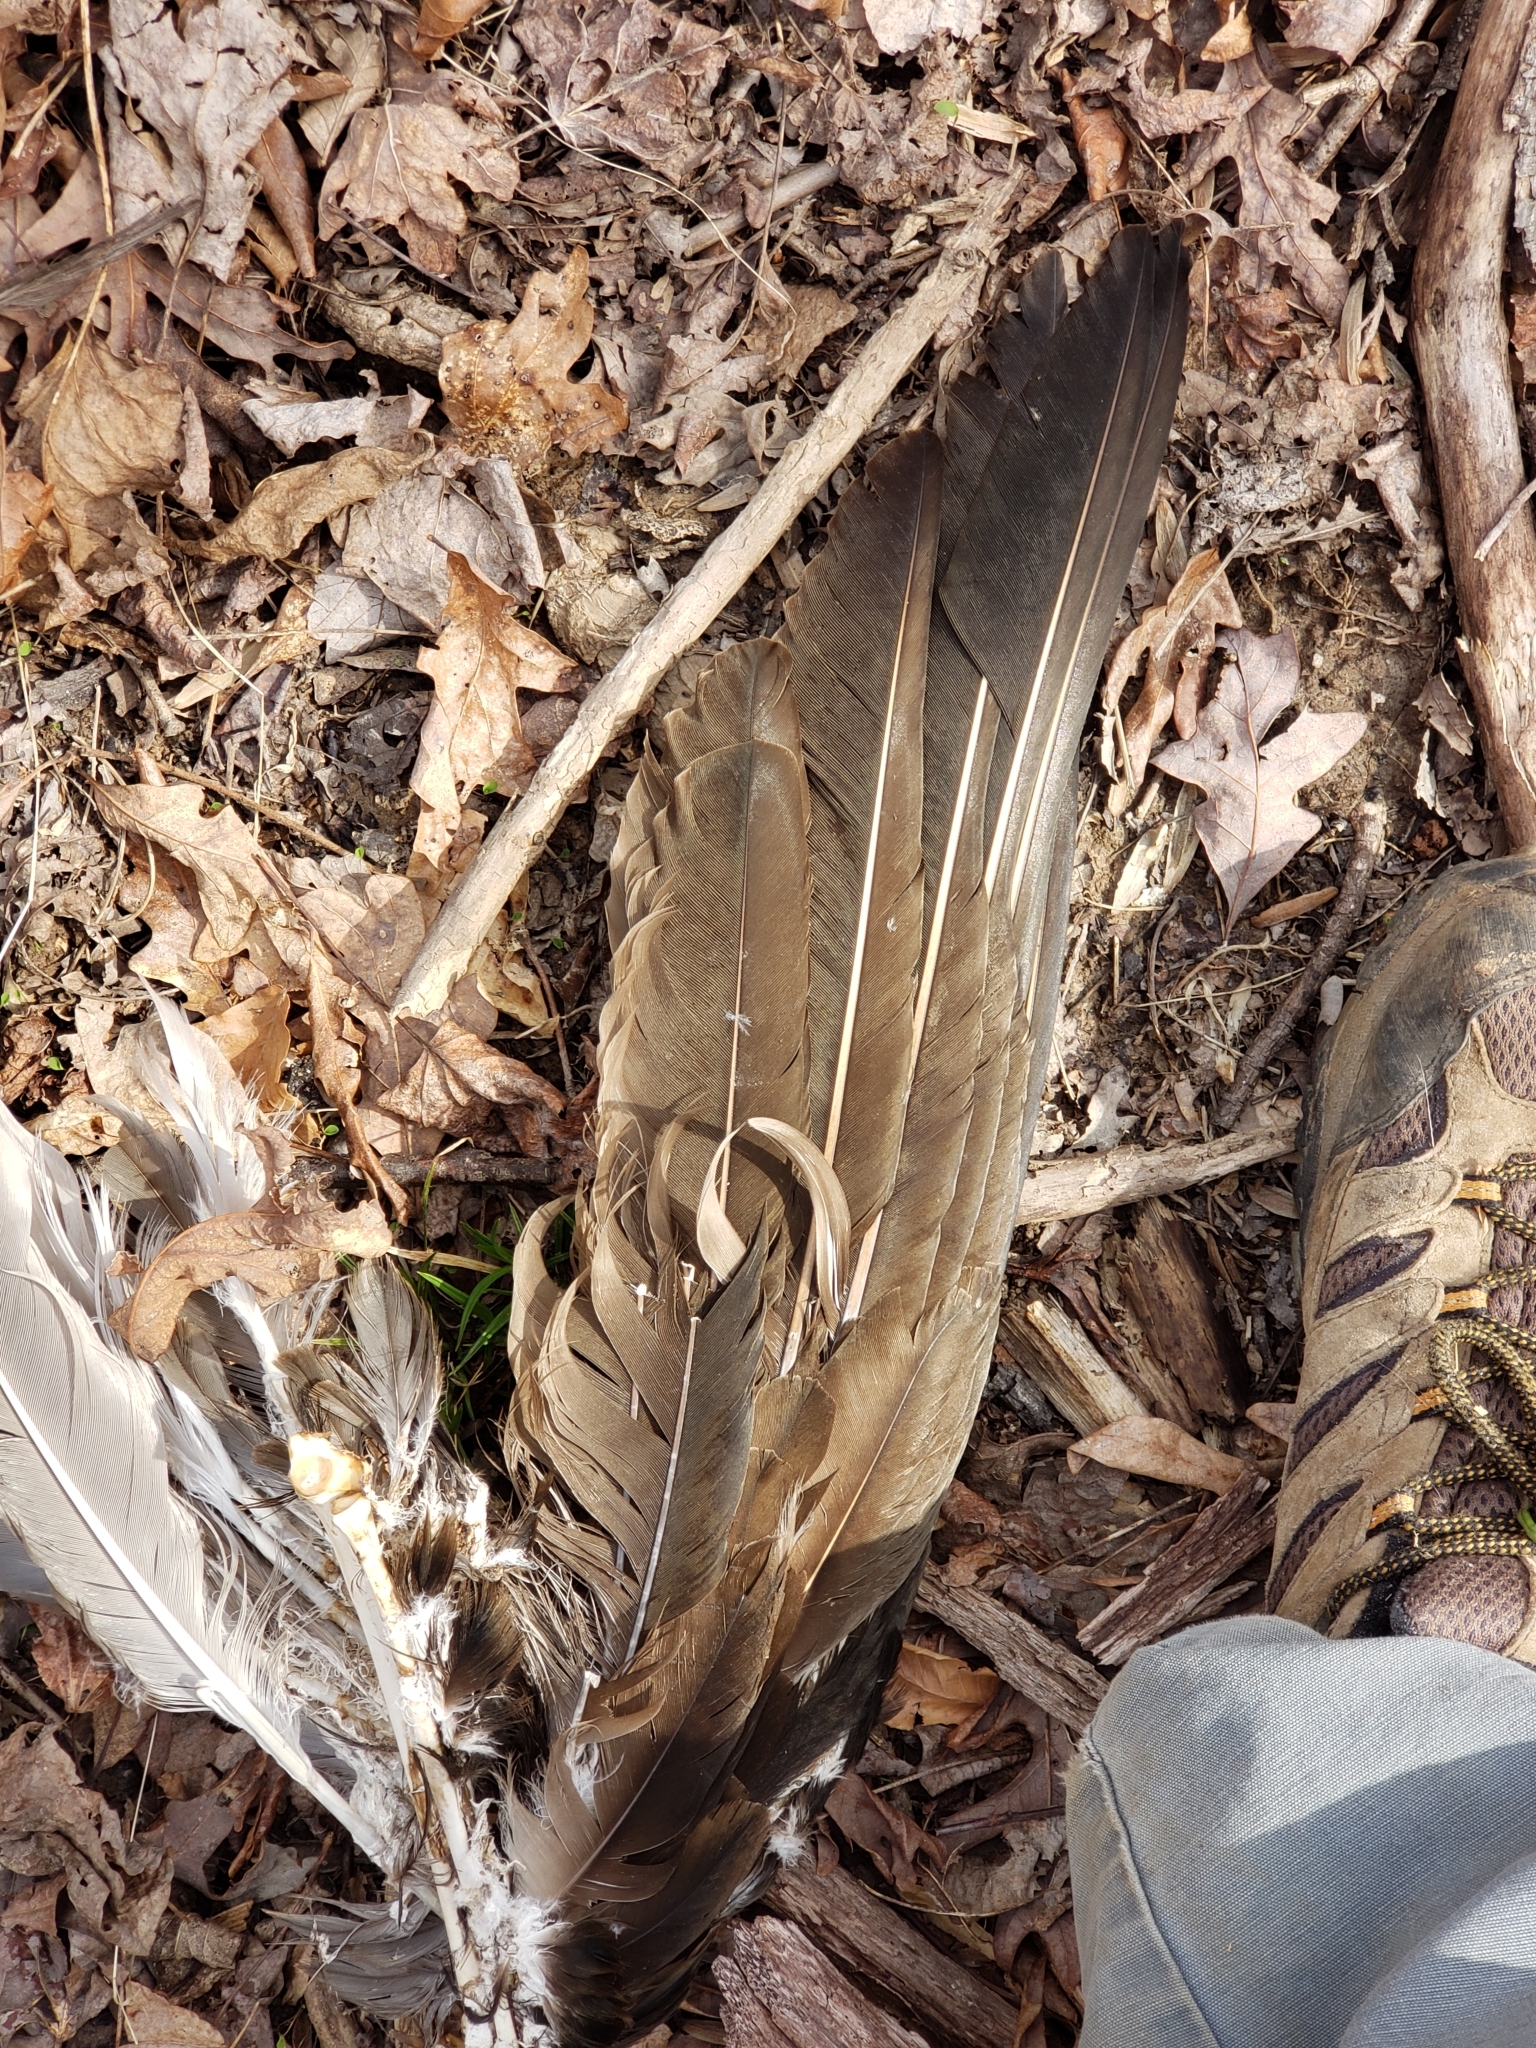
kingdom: Animalia
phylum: Chordata
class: Aves
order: Accipitriformes
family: Cathartidae
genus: Cathartes
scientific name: Cathartes aura
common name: Turkey vulture
